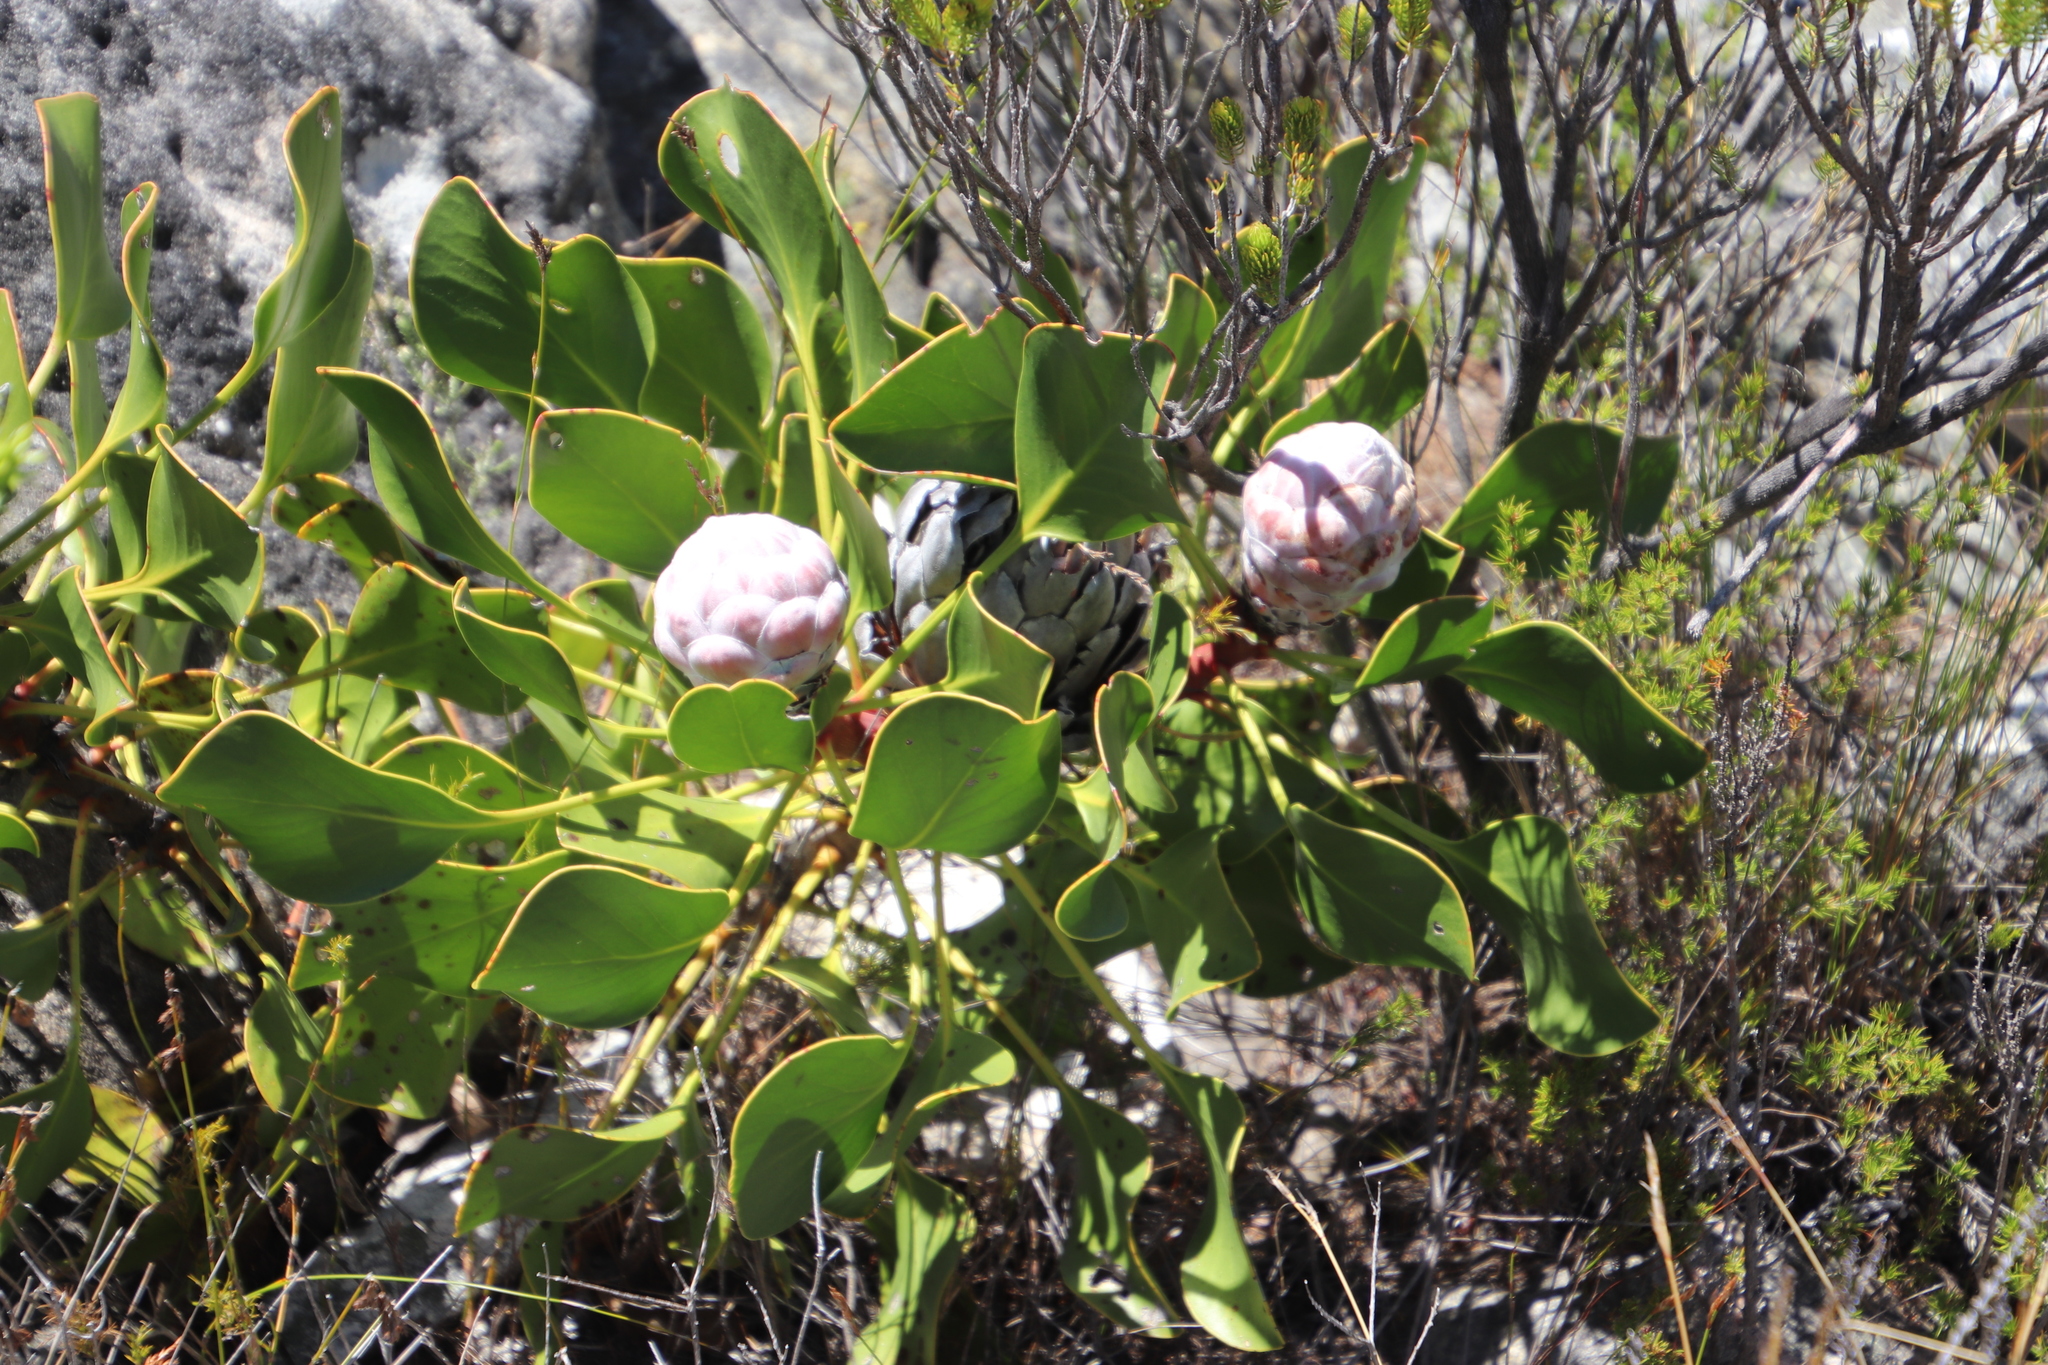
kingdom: Plantae
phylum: Tracheophyta
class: Magnoliopsida
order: Proteales
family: Proteaceae
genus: Protea
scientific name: Protea cynaroides
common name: King protea
